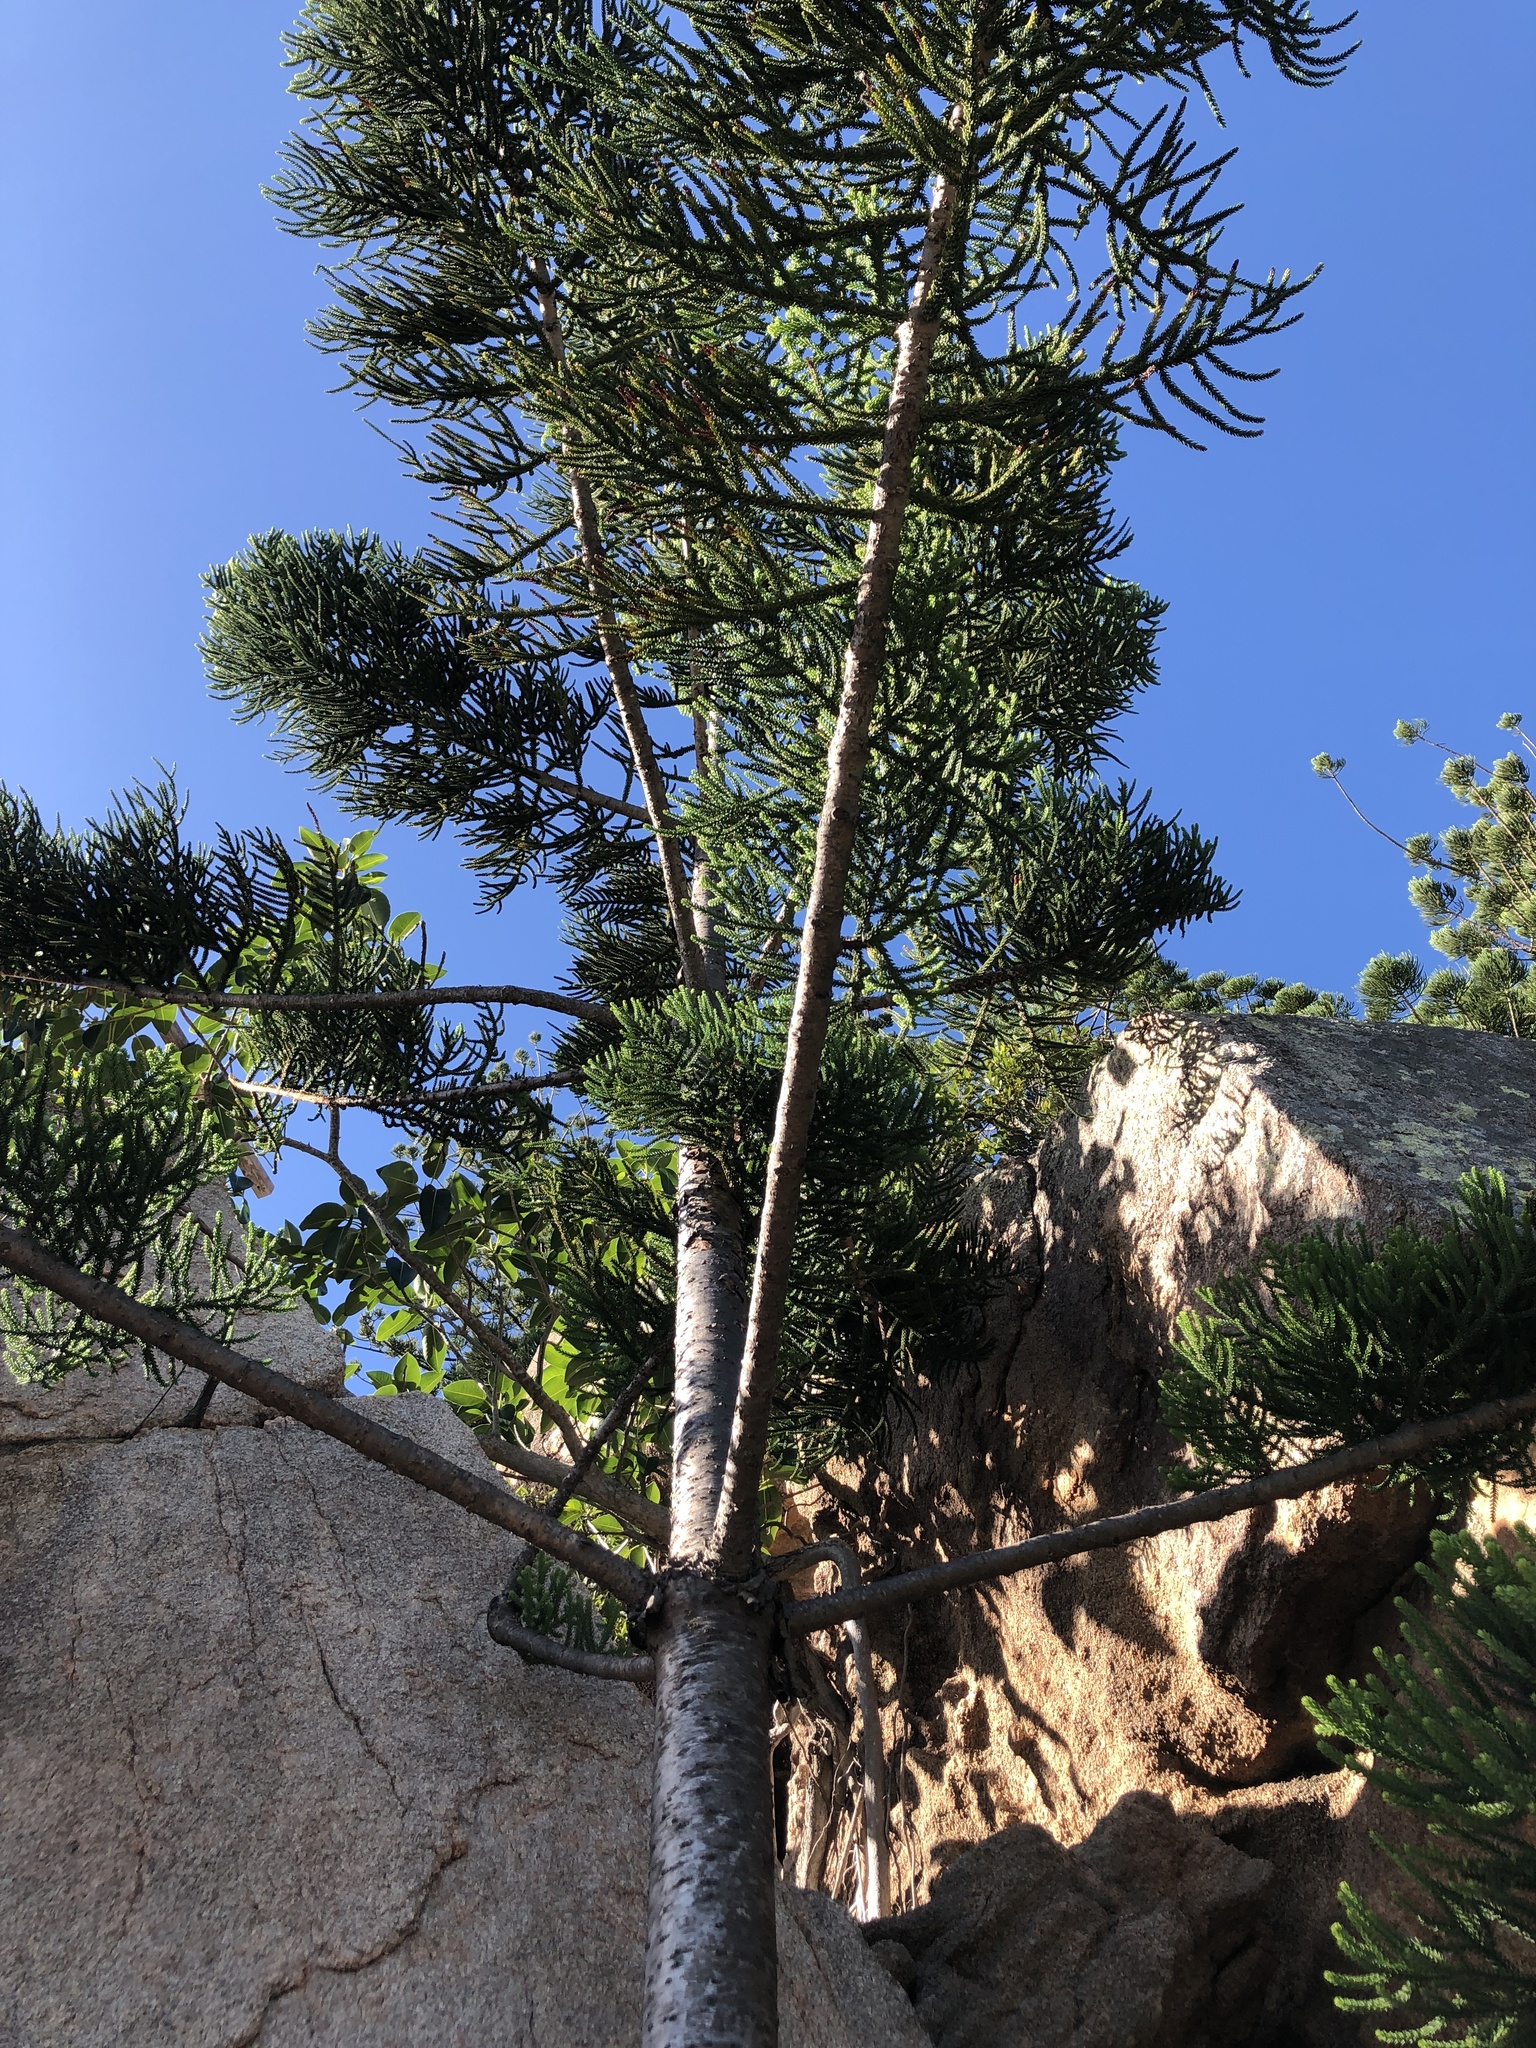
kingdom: Plantae
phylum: Tracheophyta
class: Pinopsida
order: Pinales
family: Araucariaceae
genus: Araucaria
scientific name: Araucaria cunninghamii
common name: Colonial pine
